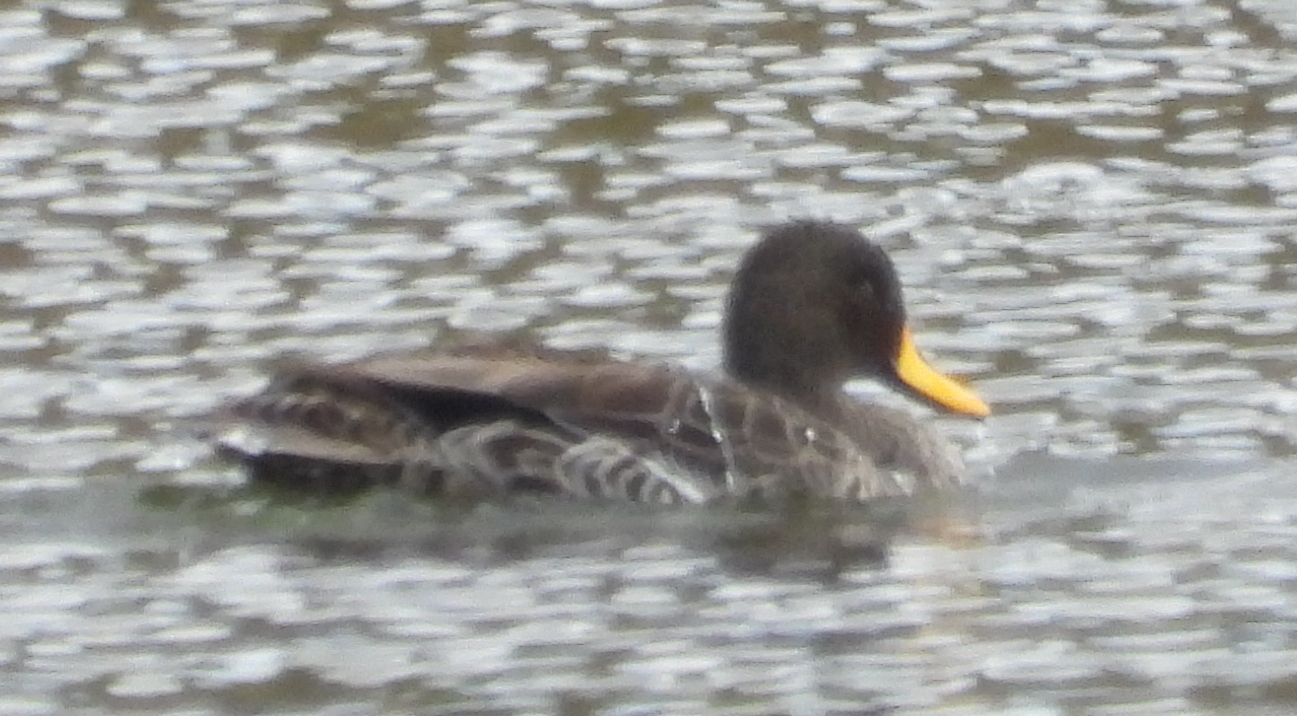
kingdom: Animalia
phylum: Chordata
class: Aves
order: Anseriformes
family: Anatidae
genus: Anas
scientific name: Anas undulata
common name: Yellow-billed duck
